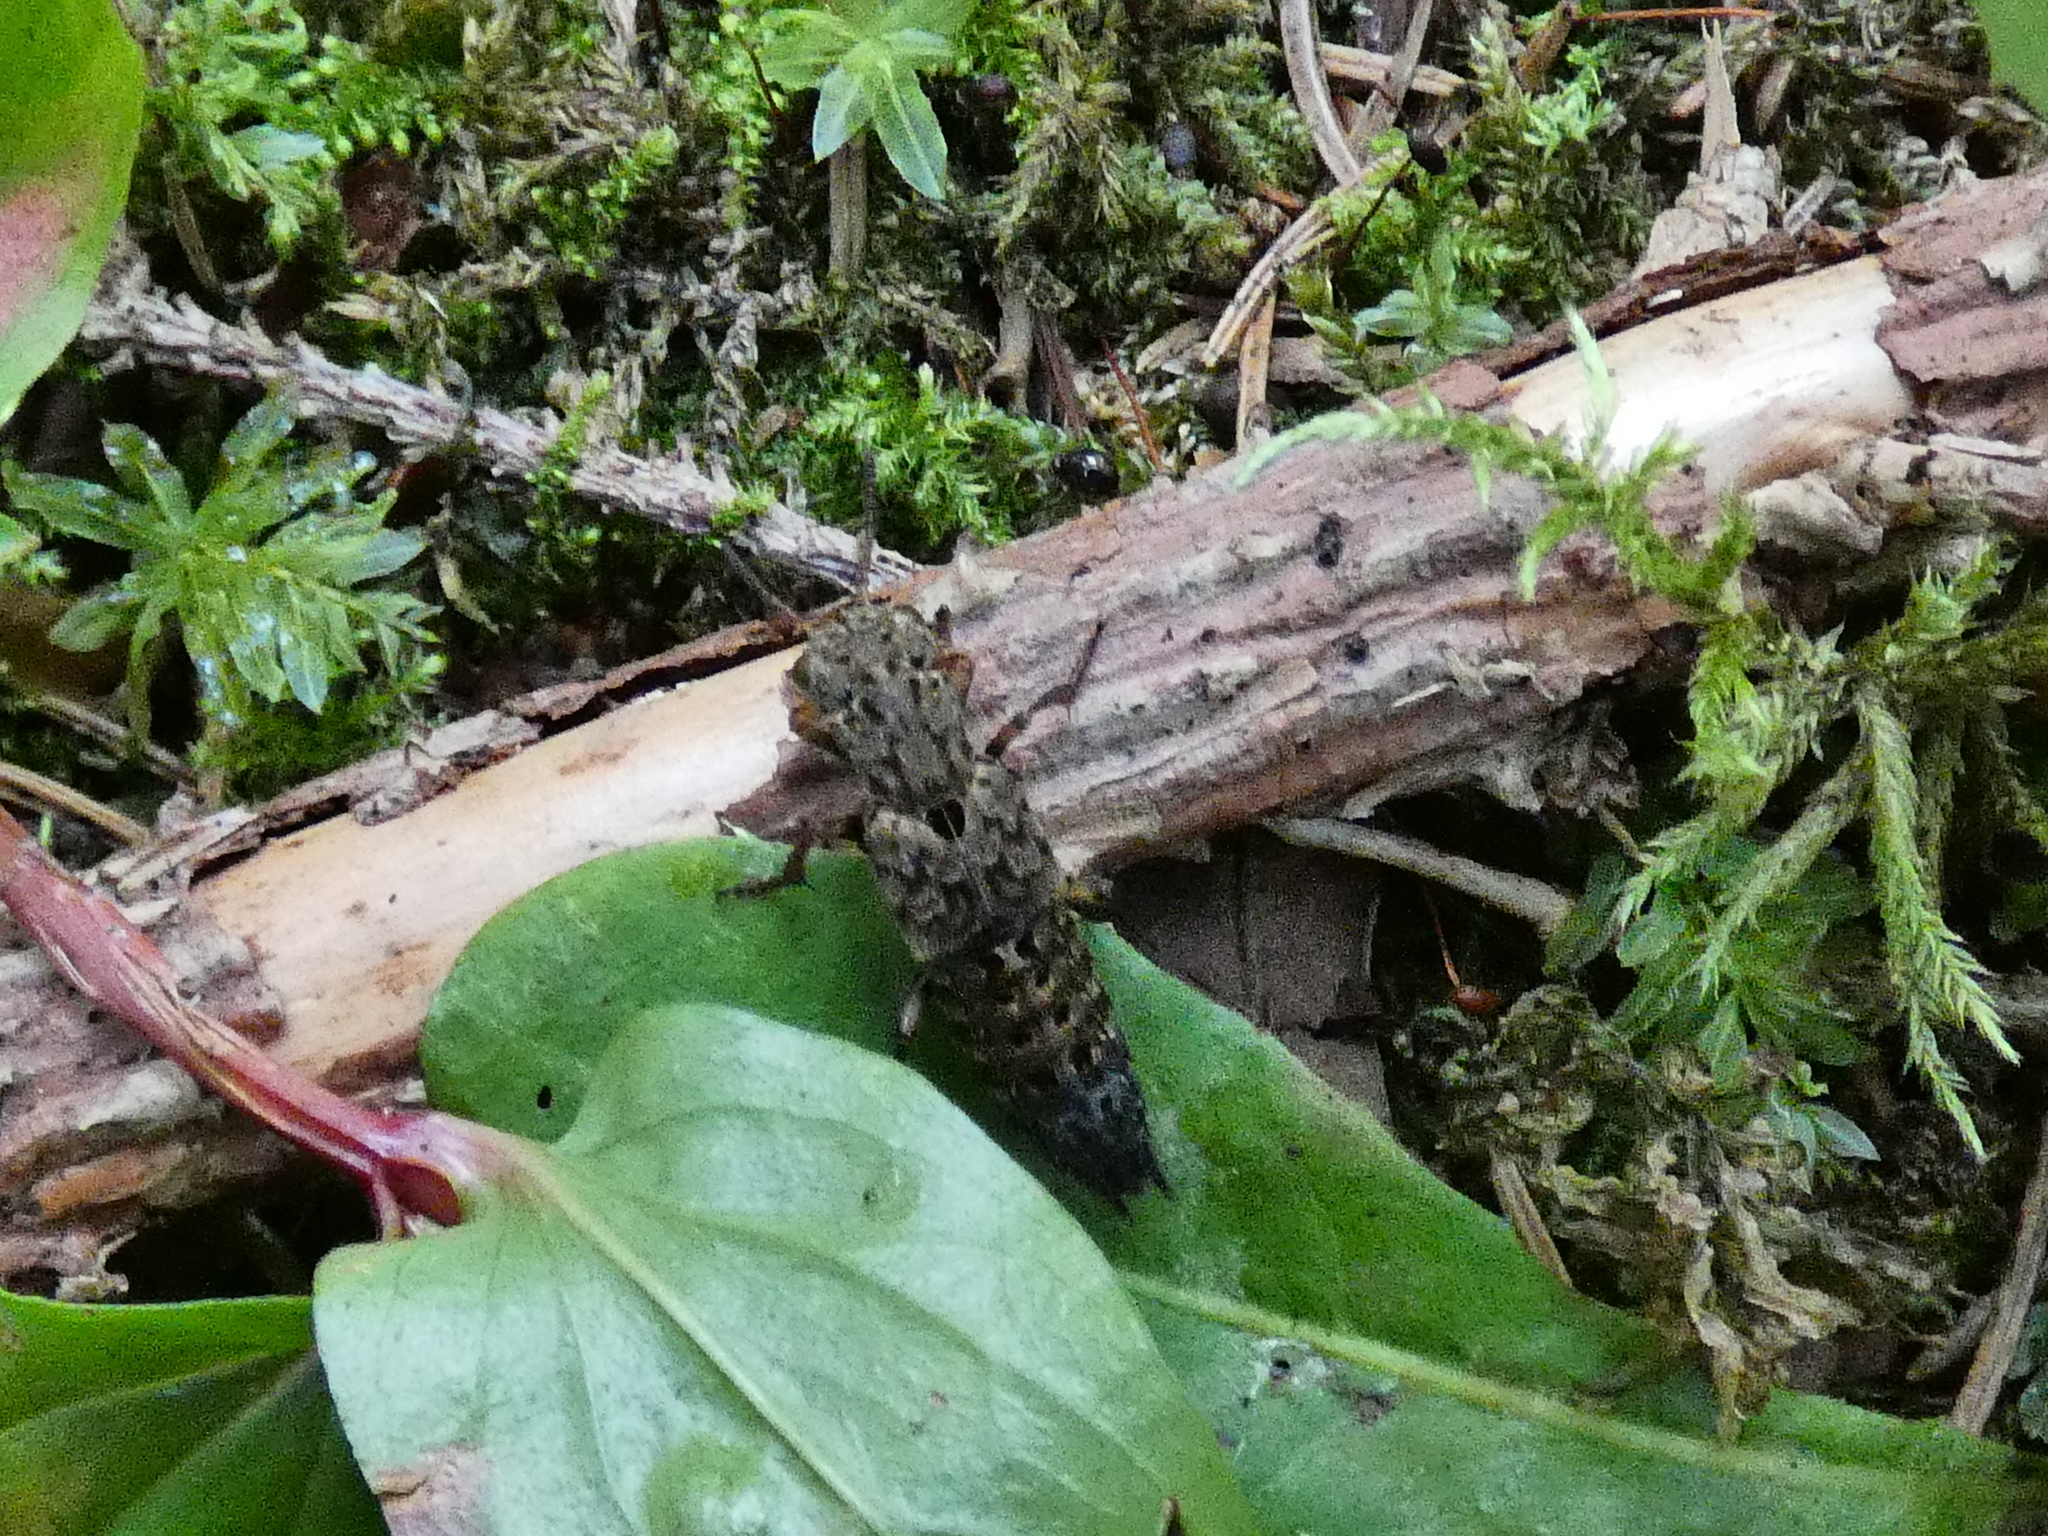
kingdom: Animalia
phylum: Arthropoda
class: Insecta
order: Coleoptera
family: Staphylinidae
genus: Ontholestes
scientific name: Ontholestes tessellatus
